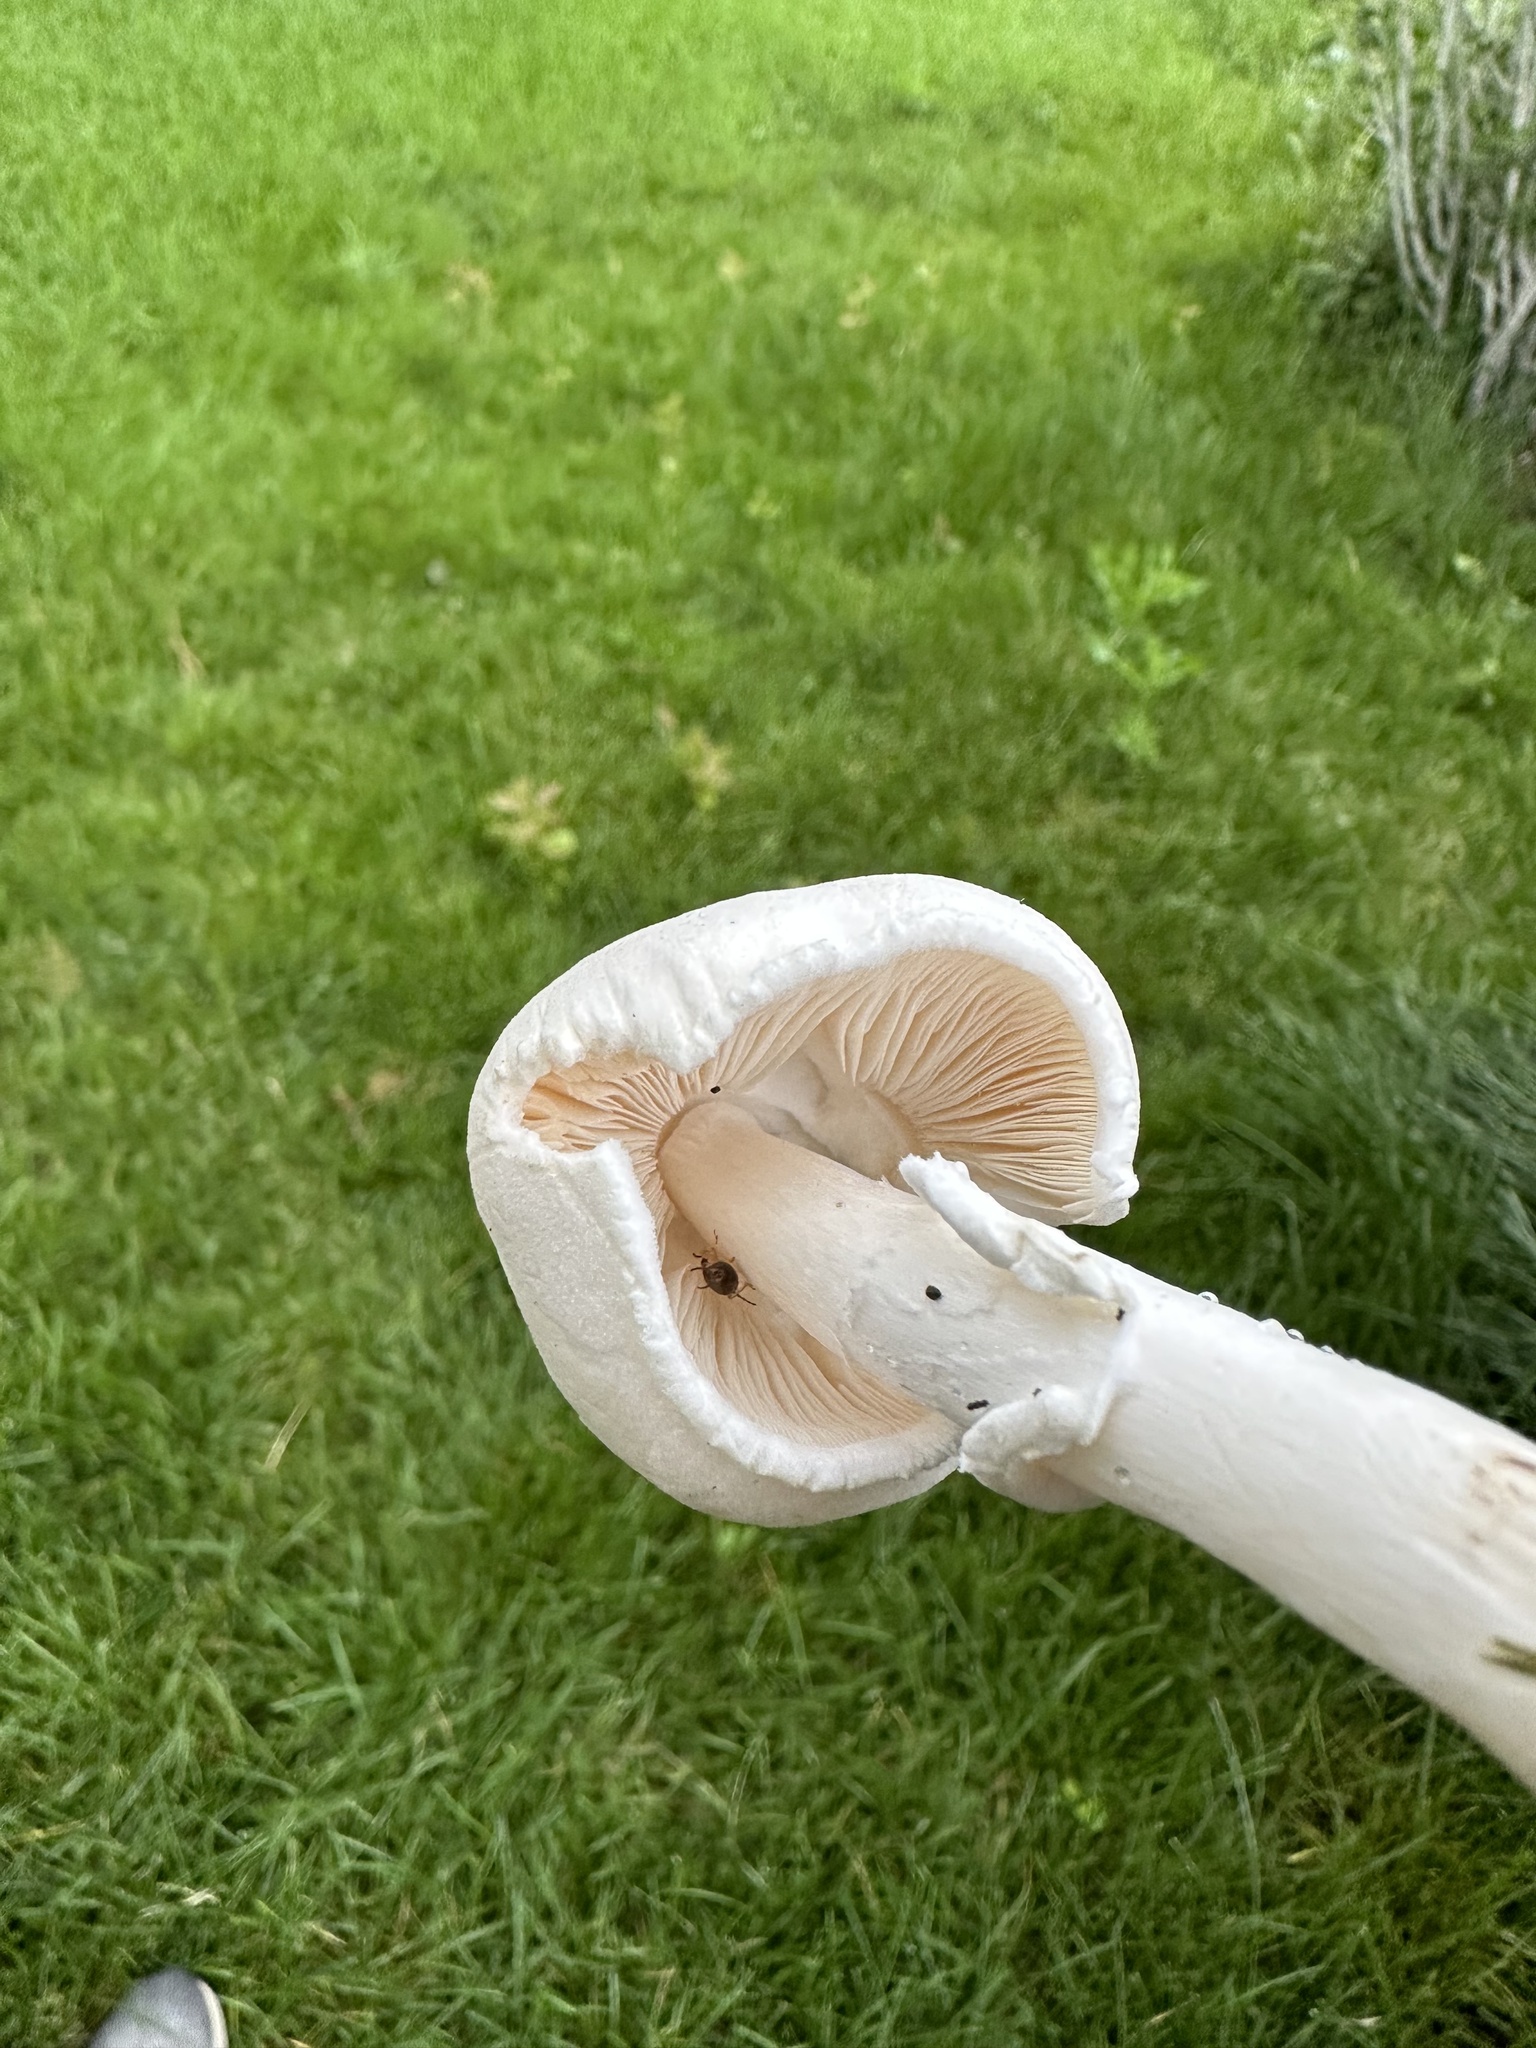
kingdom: Fungi
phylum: Basidiomycota
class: Agaricomycetes
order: Agaricales
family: Agaricaceae
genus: Leucoagaricus
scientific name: Leucoagaricus leucothites
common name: White dapperling
